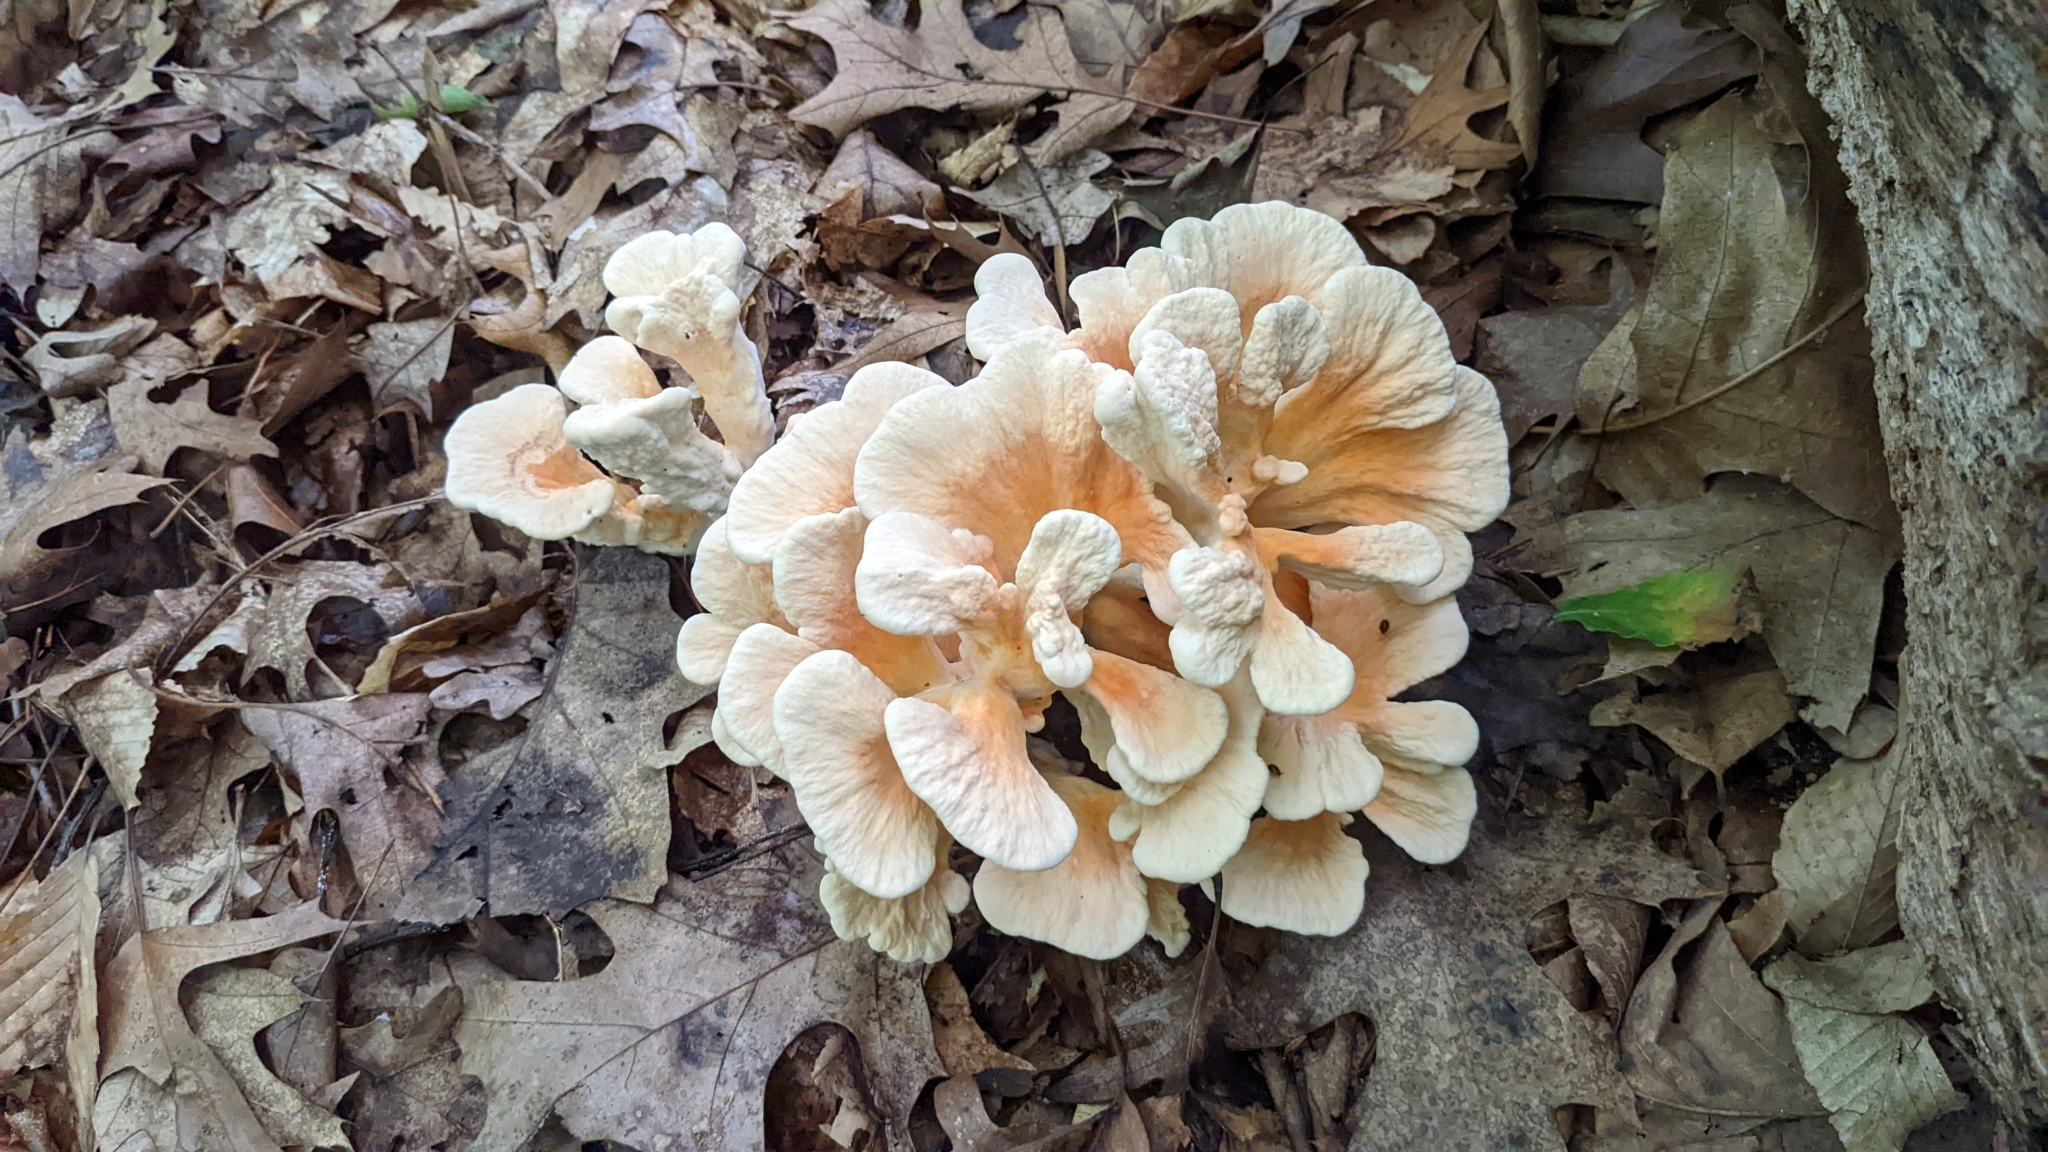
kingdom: Fungi
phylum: Basidiomycota
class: Agaricomycetes
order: Polyporales
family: Laetiporaceae
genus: Laetiporus
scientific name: Laetiporus sulphureus
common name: Chicken of the woods
